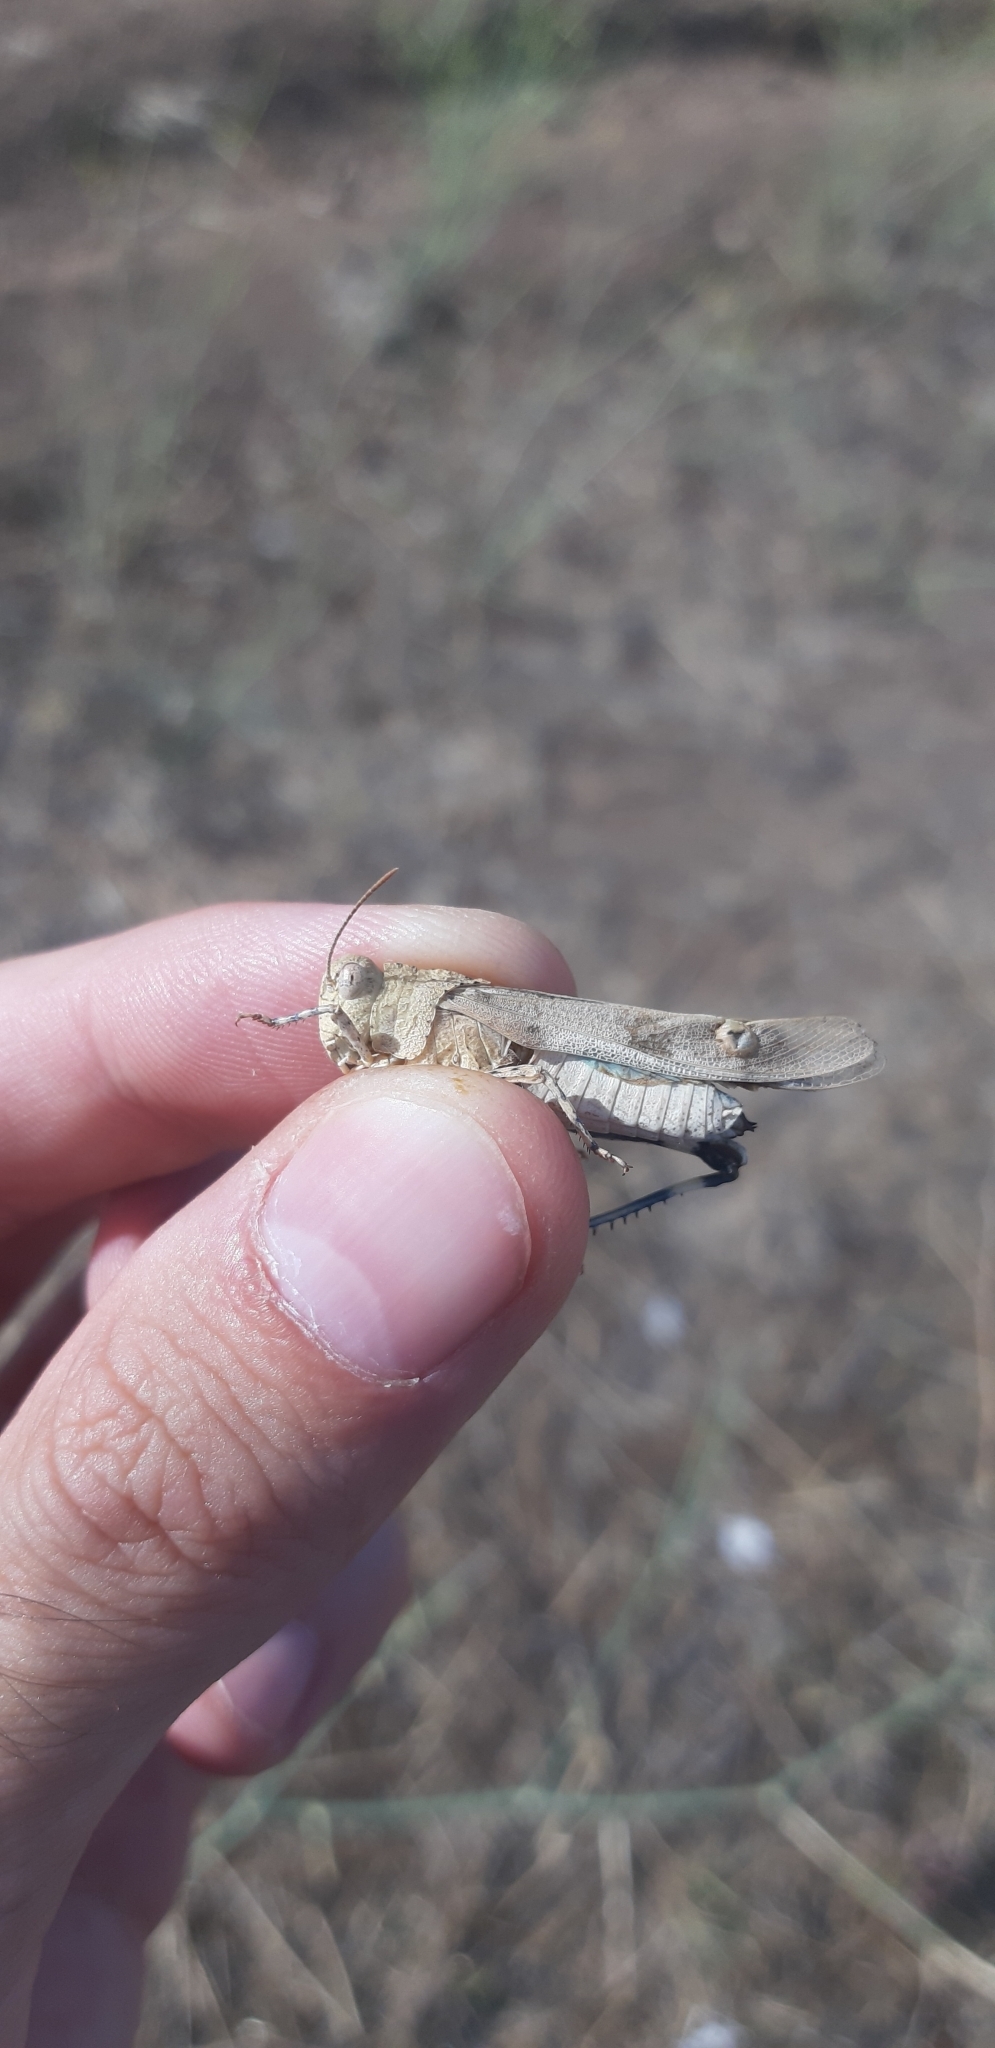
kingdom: Animalia
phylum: Arthropoda
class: Insecta
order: Orthoptera
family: Acrididae
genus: Oedipoda
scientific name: Oedipoda caerulescens
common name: Blue-winged grasshopper
